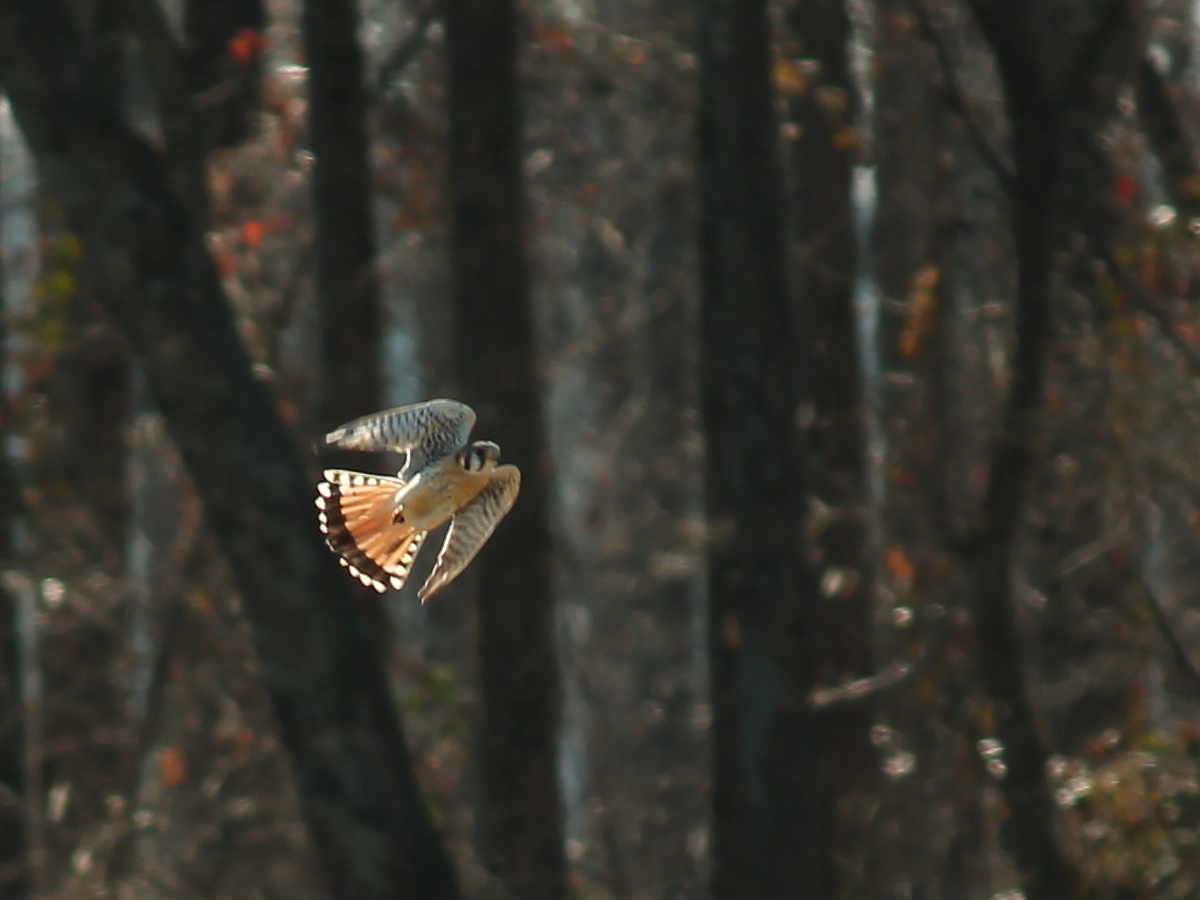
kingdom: Animalia
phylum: Chordata
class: Aves
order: Falconiformes
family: Falconidae
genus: Falco
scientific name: Falco sparverius
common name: American kestrel
